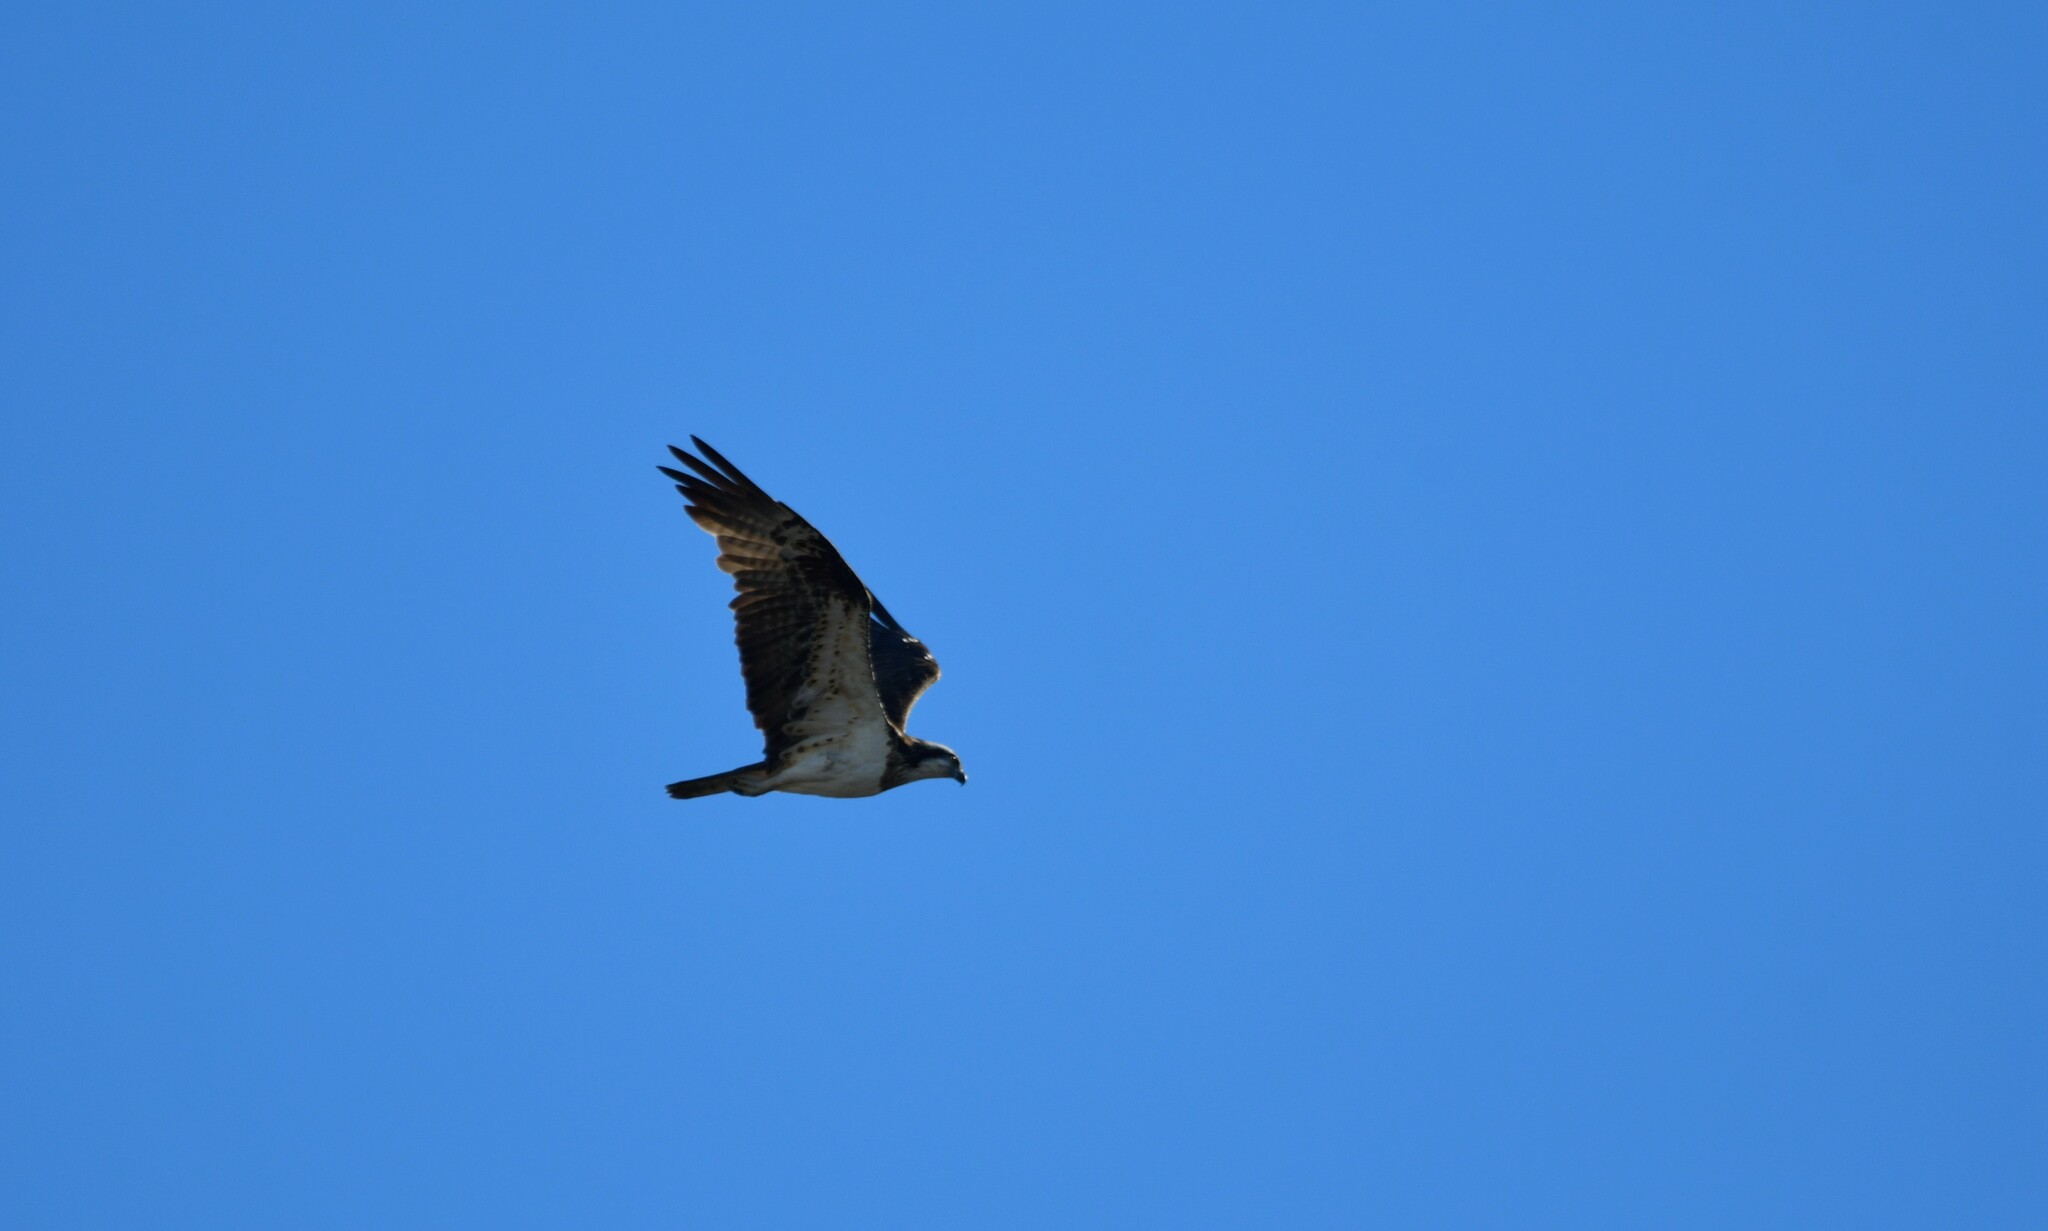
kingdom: Animalia
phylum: Chordata
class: Aves
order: Accipitriformes
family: Pandionidae
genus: Pandion
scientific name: Pandion haliaetus
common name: Osprey
